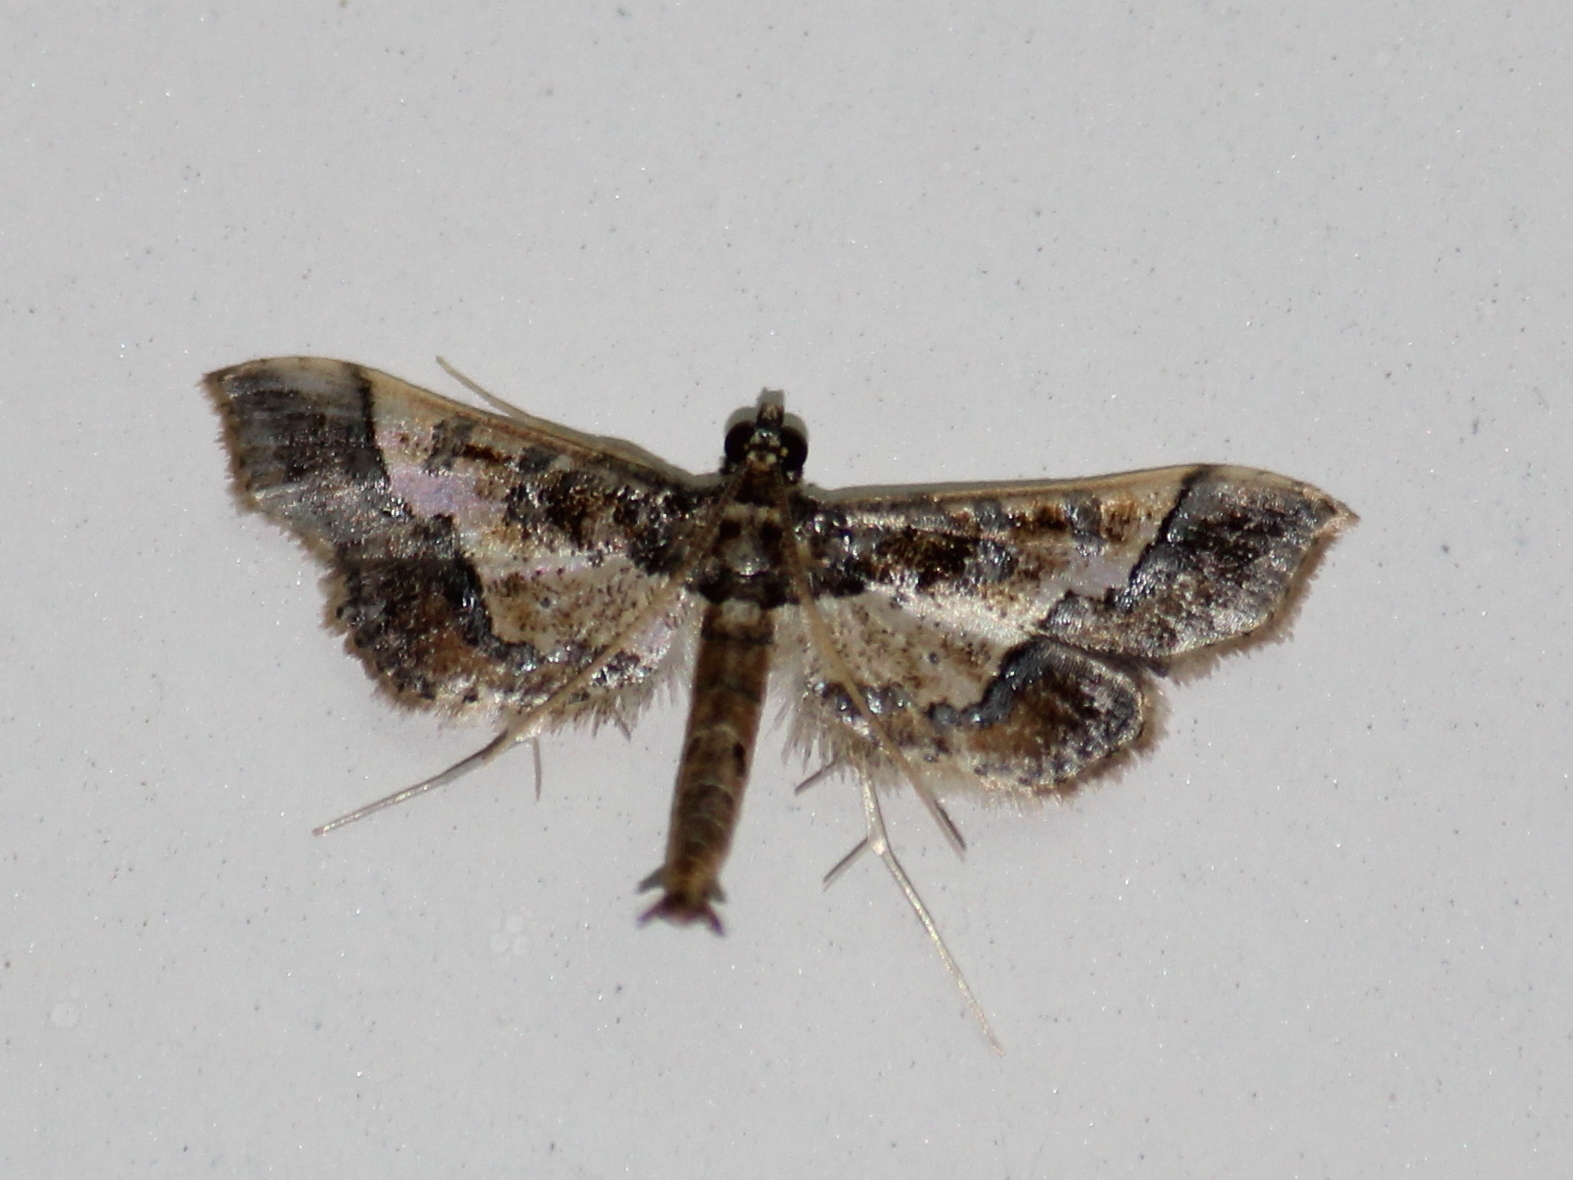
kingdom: Animalia
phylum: Arthropoda
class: Insecta
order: Lepidoptera
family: Crambidae
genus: Hydriris
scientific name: Hydriris ornatalis
